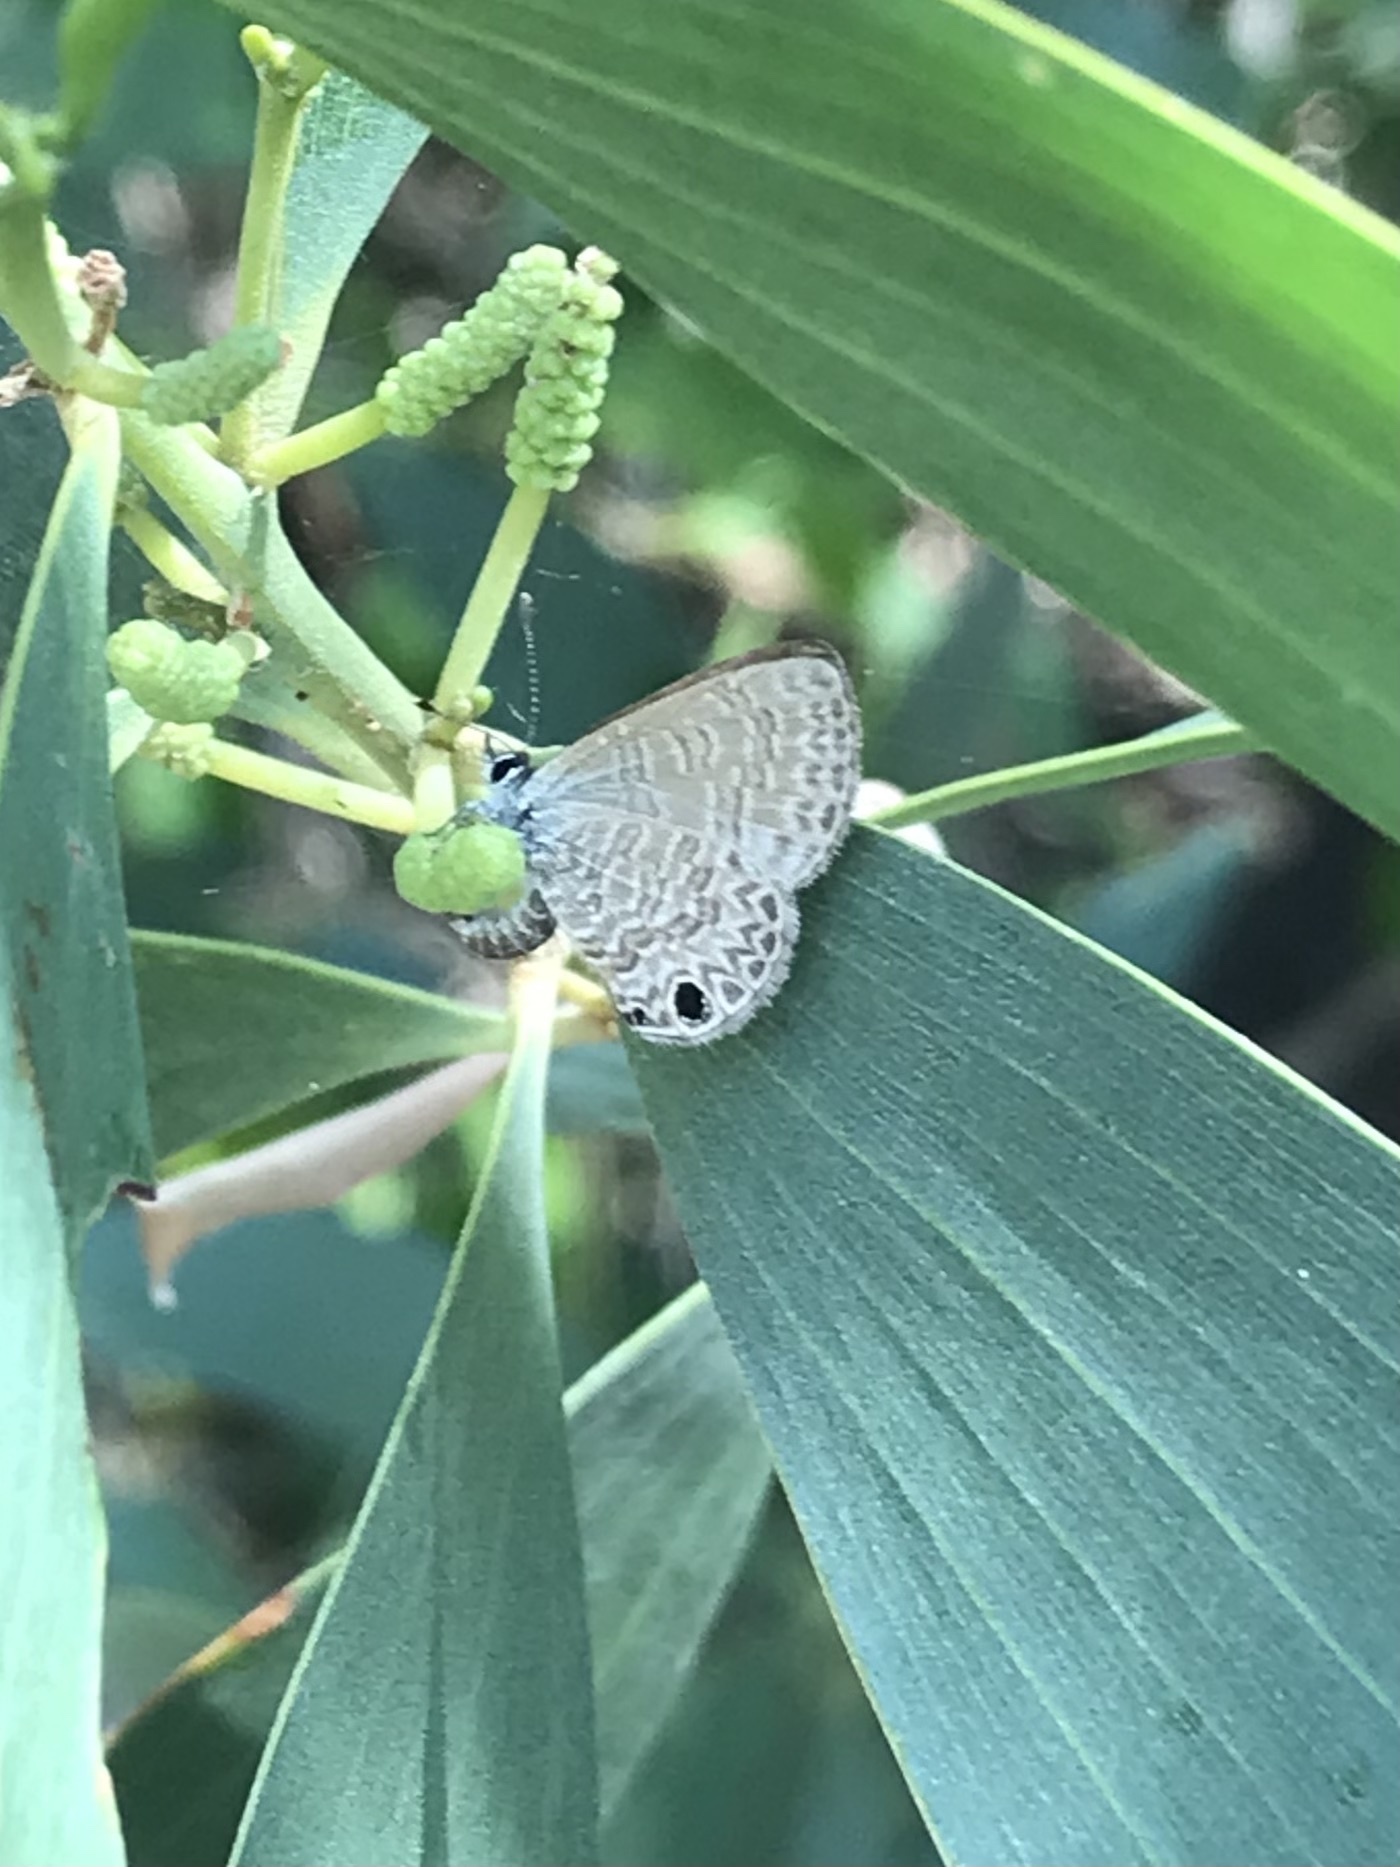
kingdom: Animalia
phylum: Arthropoda
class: Insecta
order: Lepidoptera
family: Lycaenidae
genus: Prosotas
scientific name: Prosotas dubiosa
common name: Tailless lineblue
